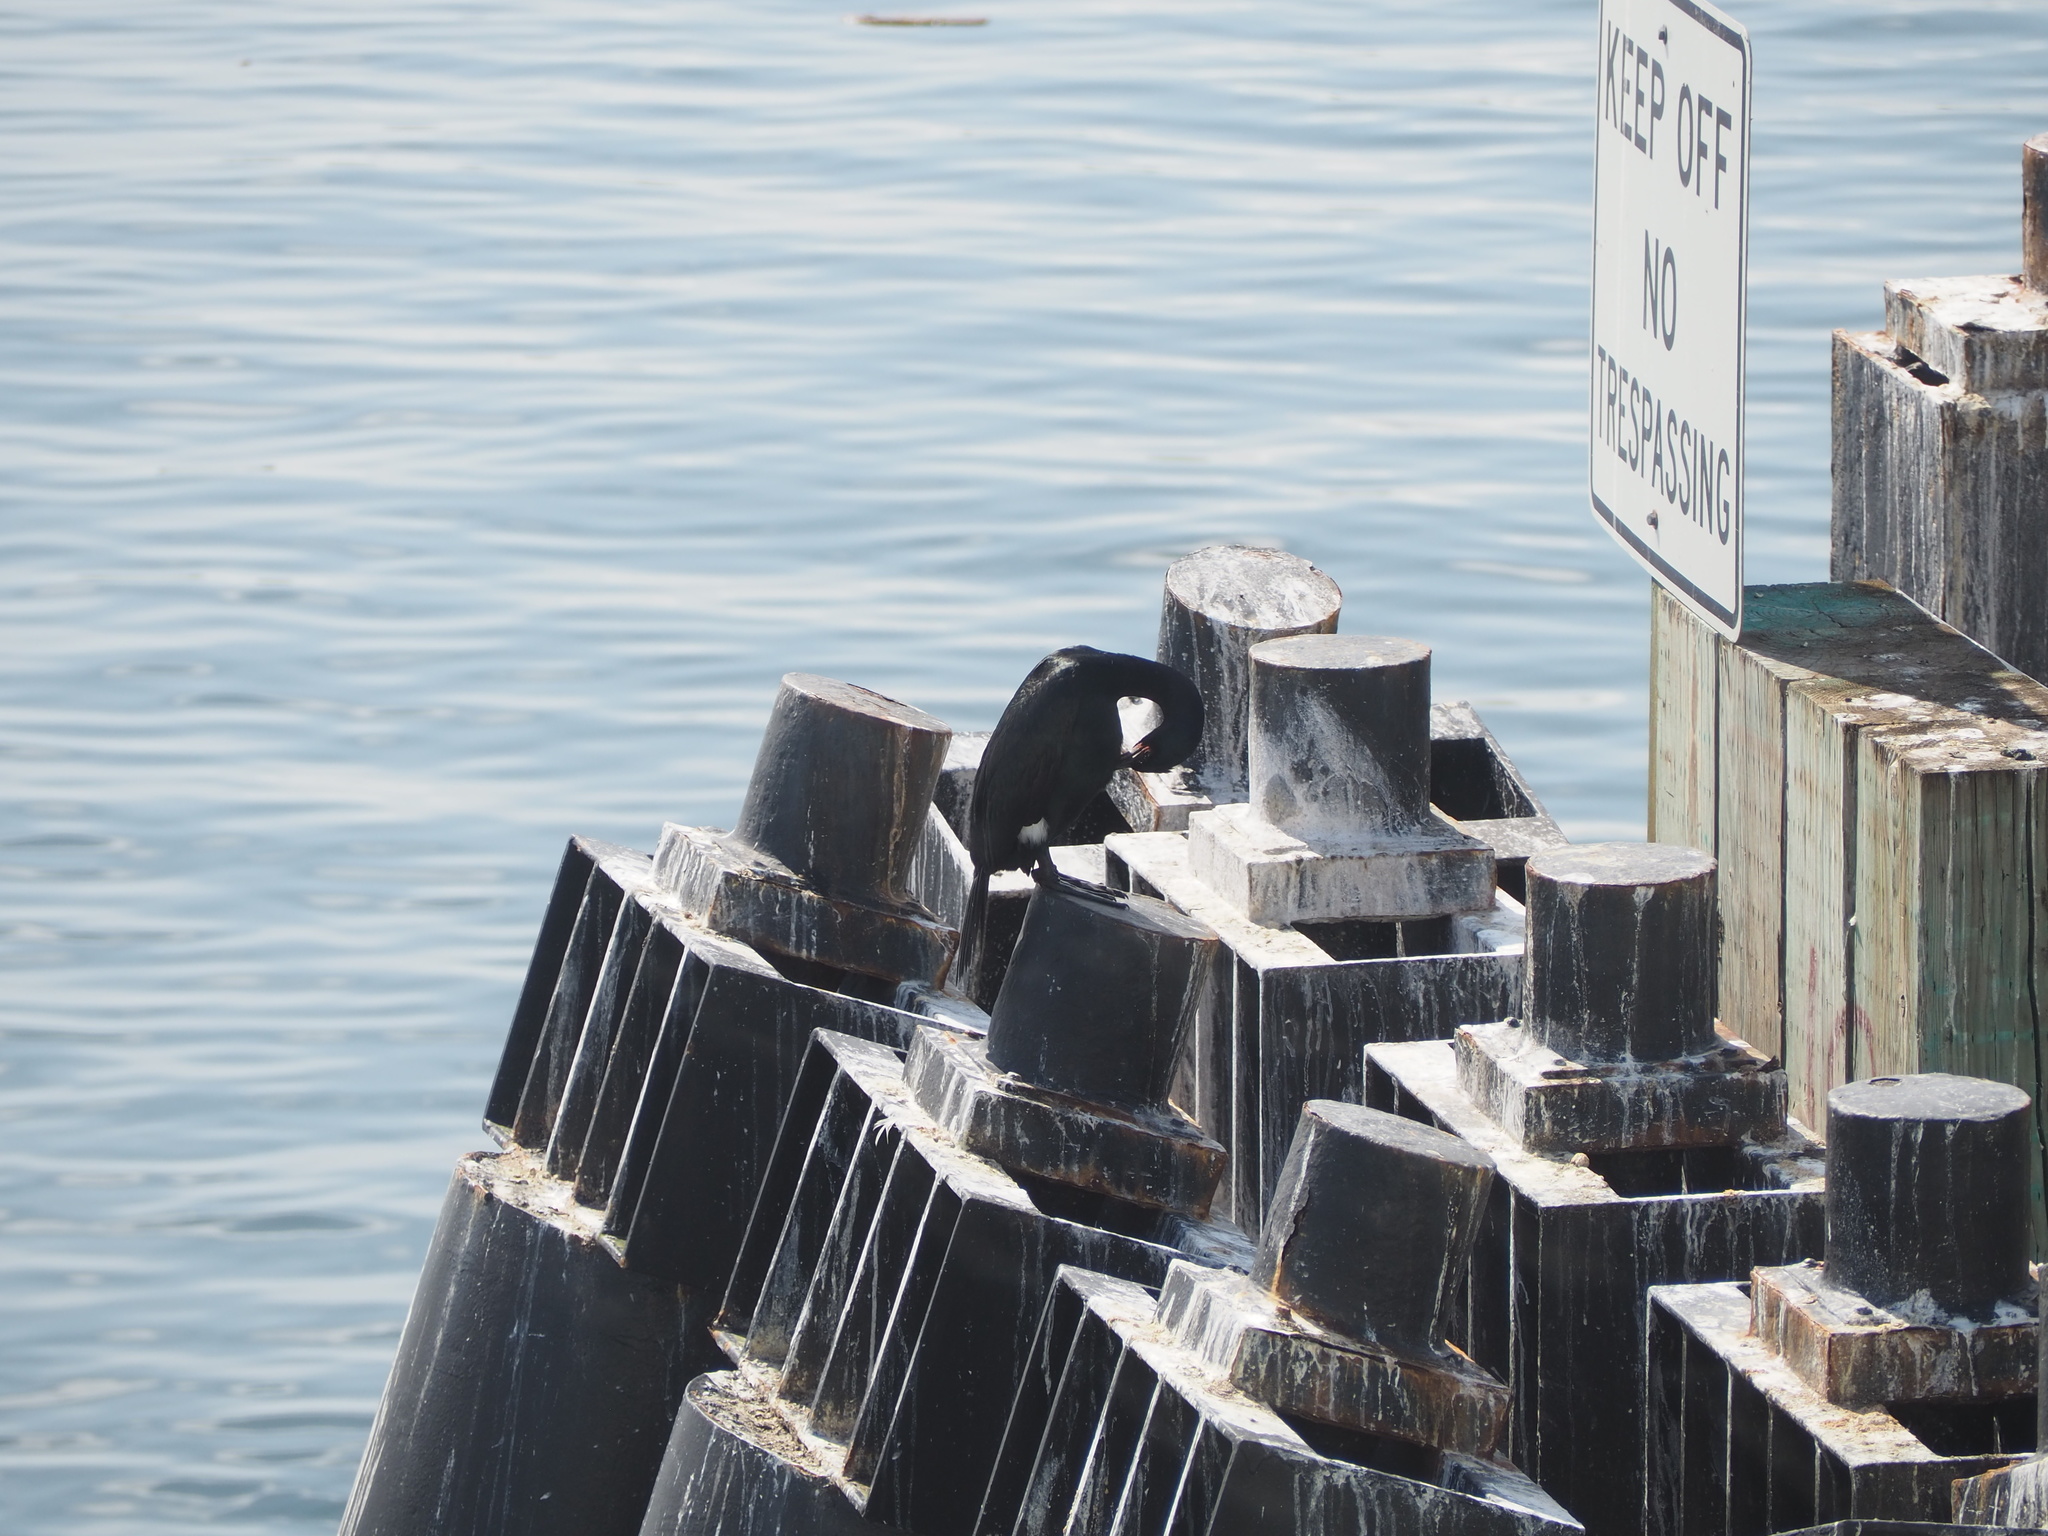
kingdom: Animalia
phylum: Chordata
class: Aves
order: Suliformes
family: Phalacrocoracidae
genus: Phalacrocorax
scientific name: Phalacrocorax pelagicus
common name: Pelagic cormorant
